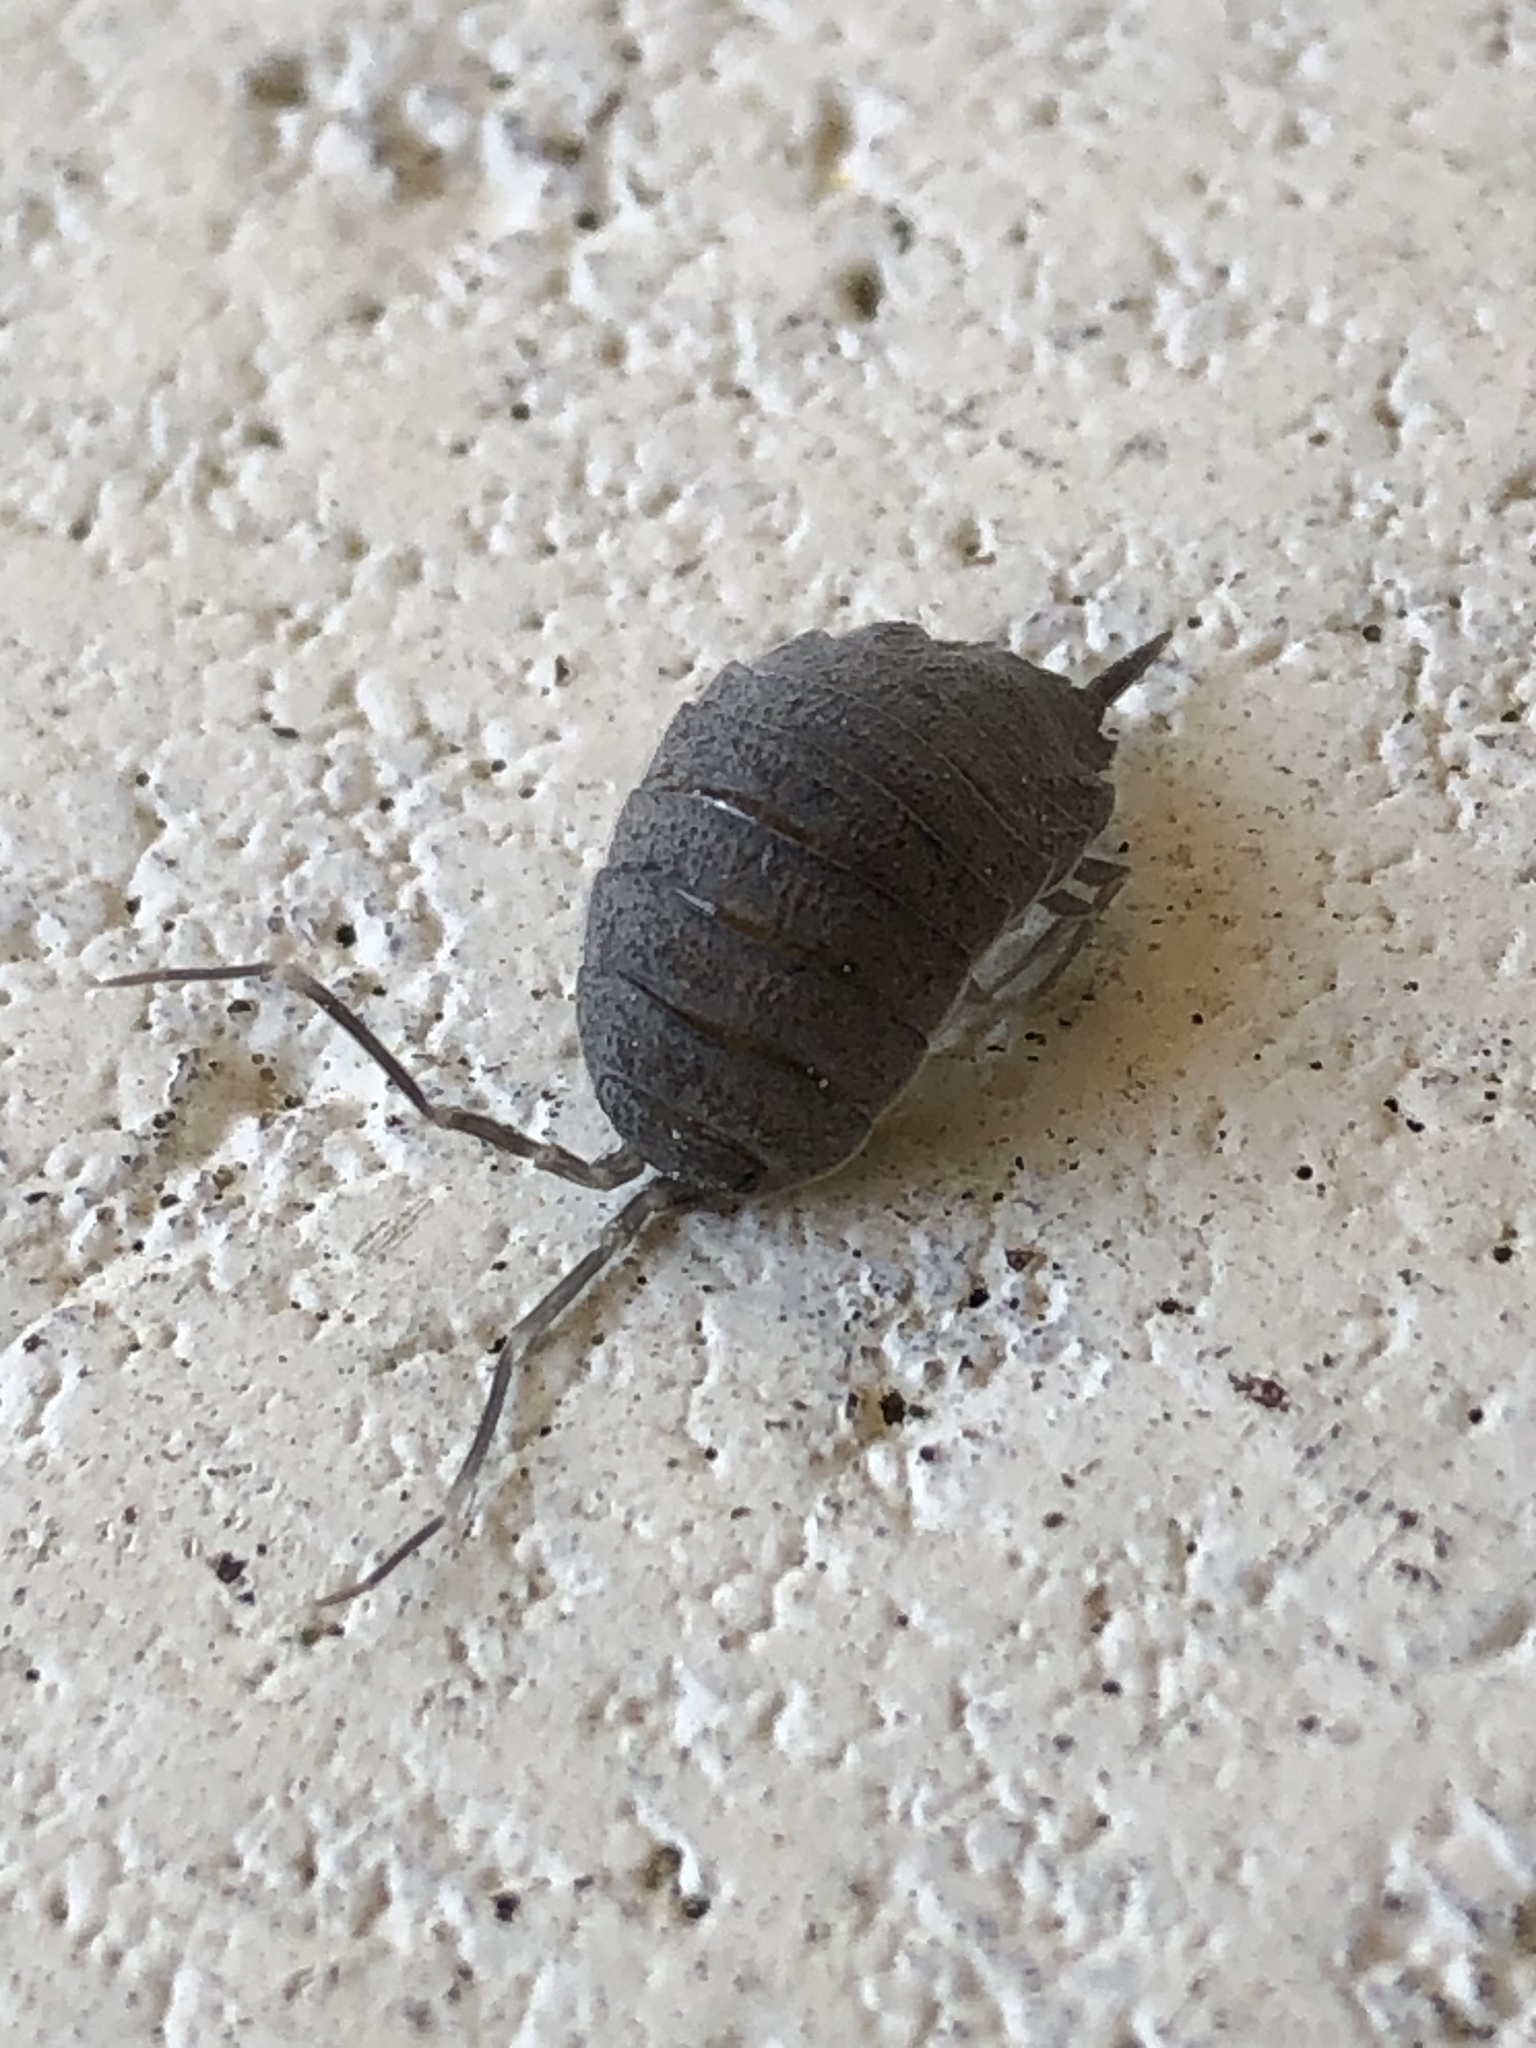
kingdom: Animalia
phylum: Arthropoda
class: Malacostraca
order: Isopoda
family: Porcellionidae
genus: Porcellionides
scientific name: Porcellionides pruinosus
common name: Plum woodlouse
